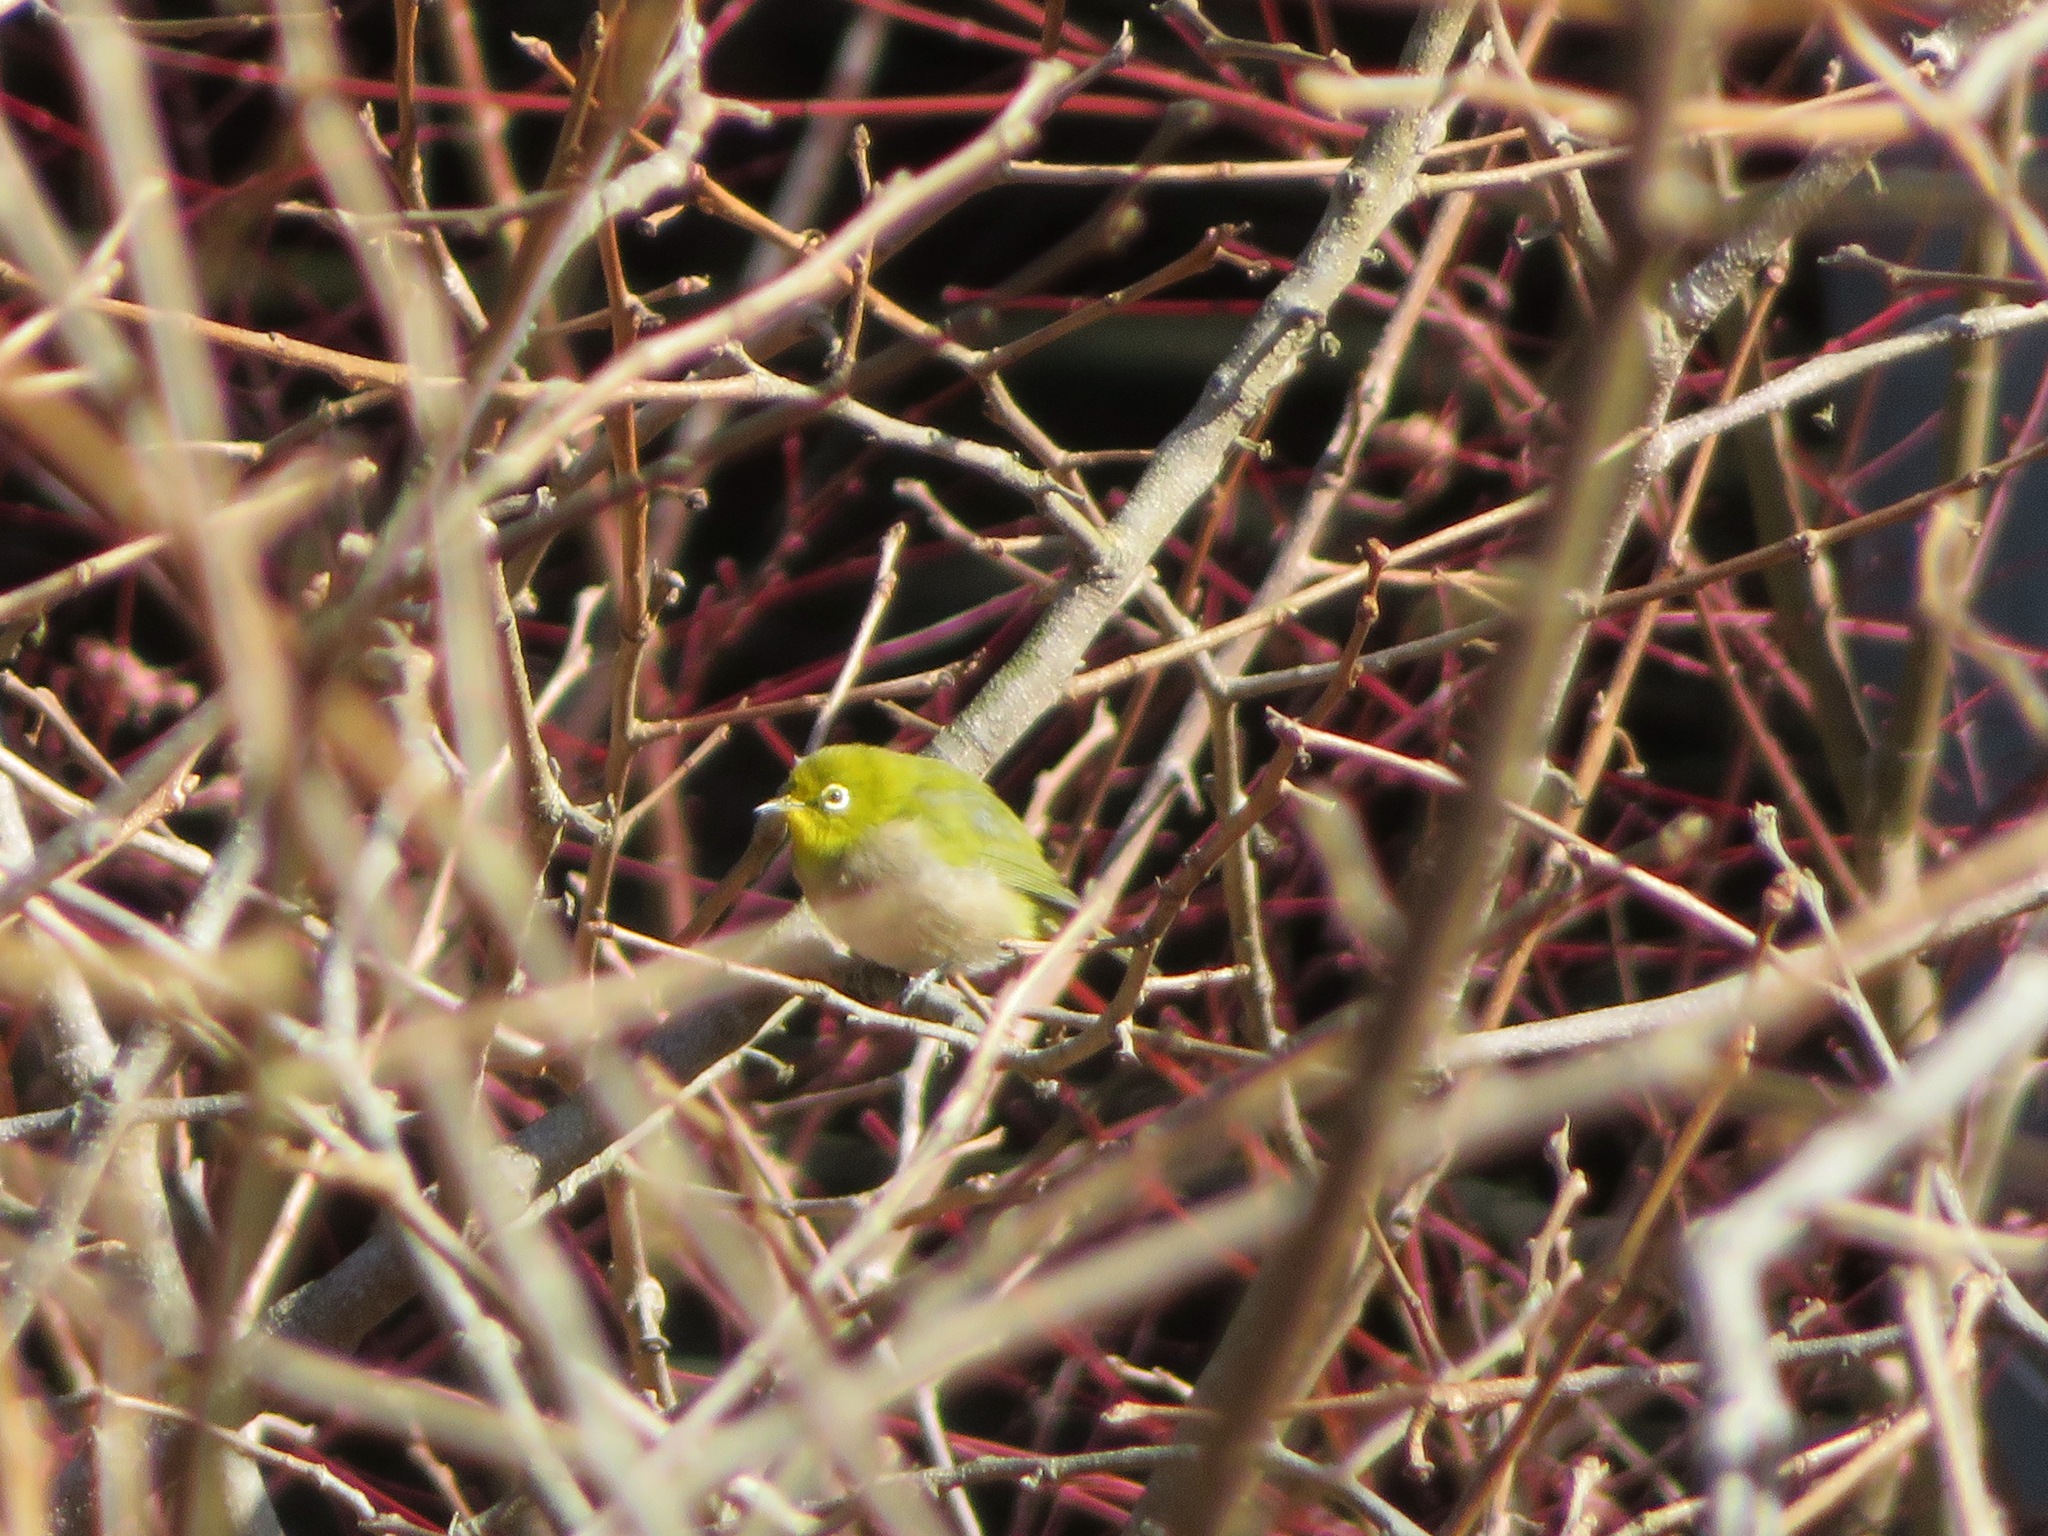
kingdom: Animalia
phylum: Chordata
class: Aves
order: Passeriformes
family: Zosteropidae
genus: Zosterops
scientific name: Zosterops japonicus
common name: Japanese white-eye
